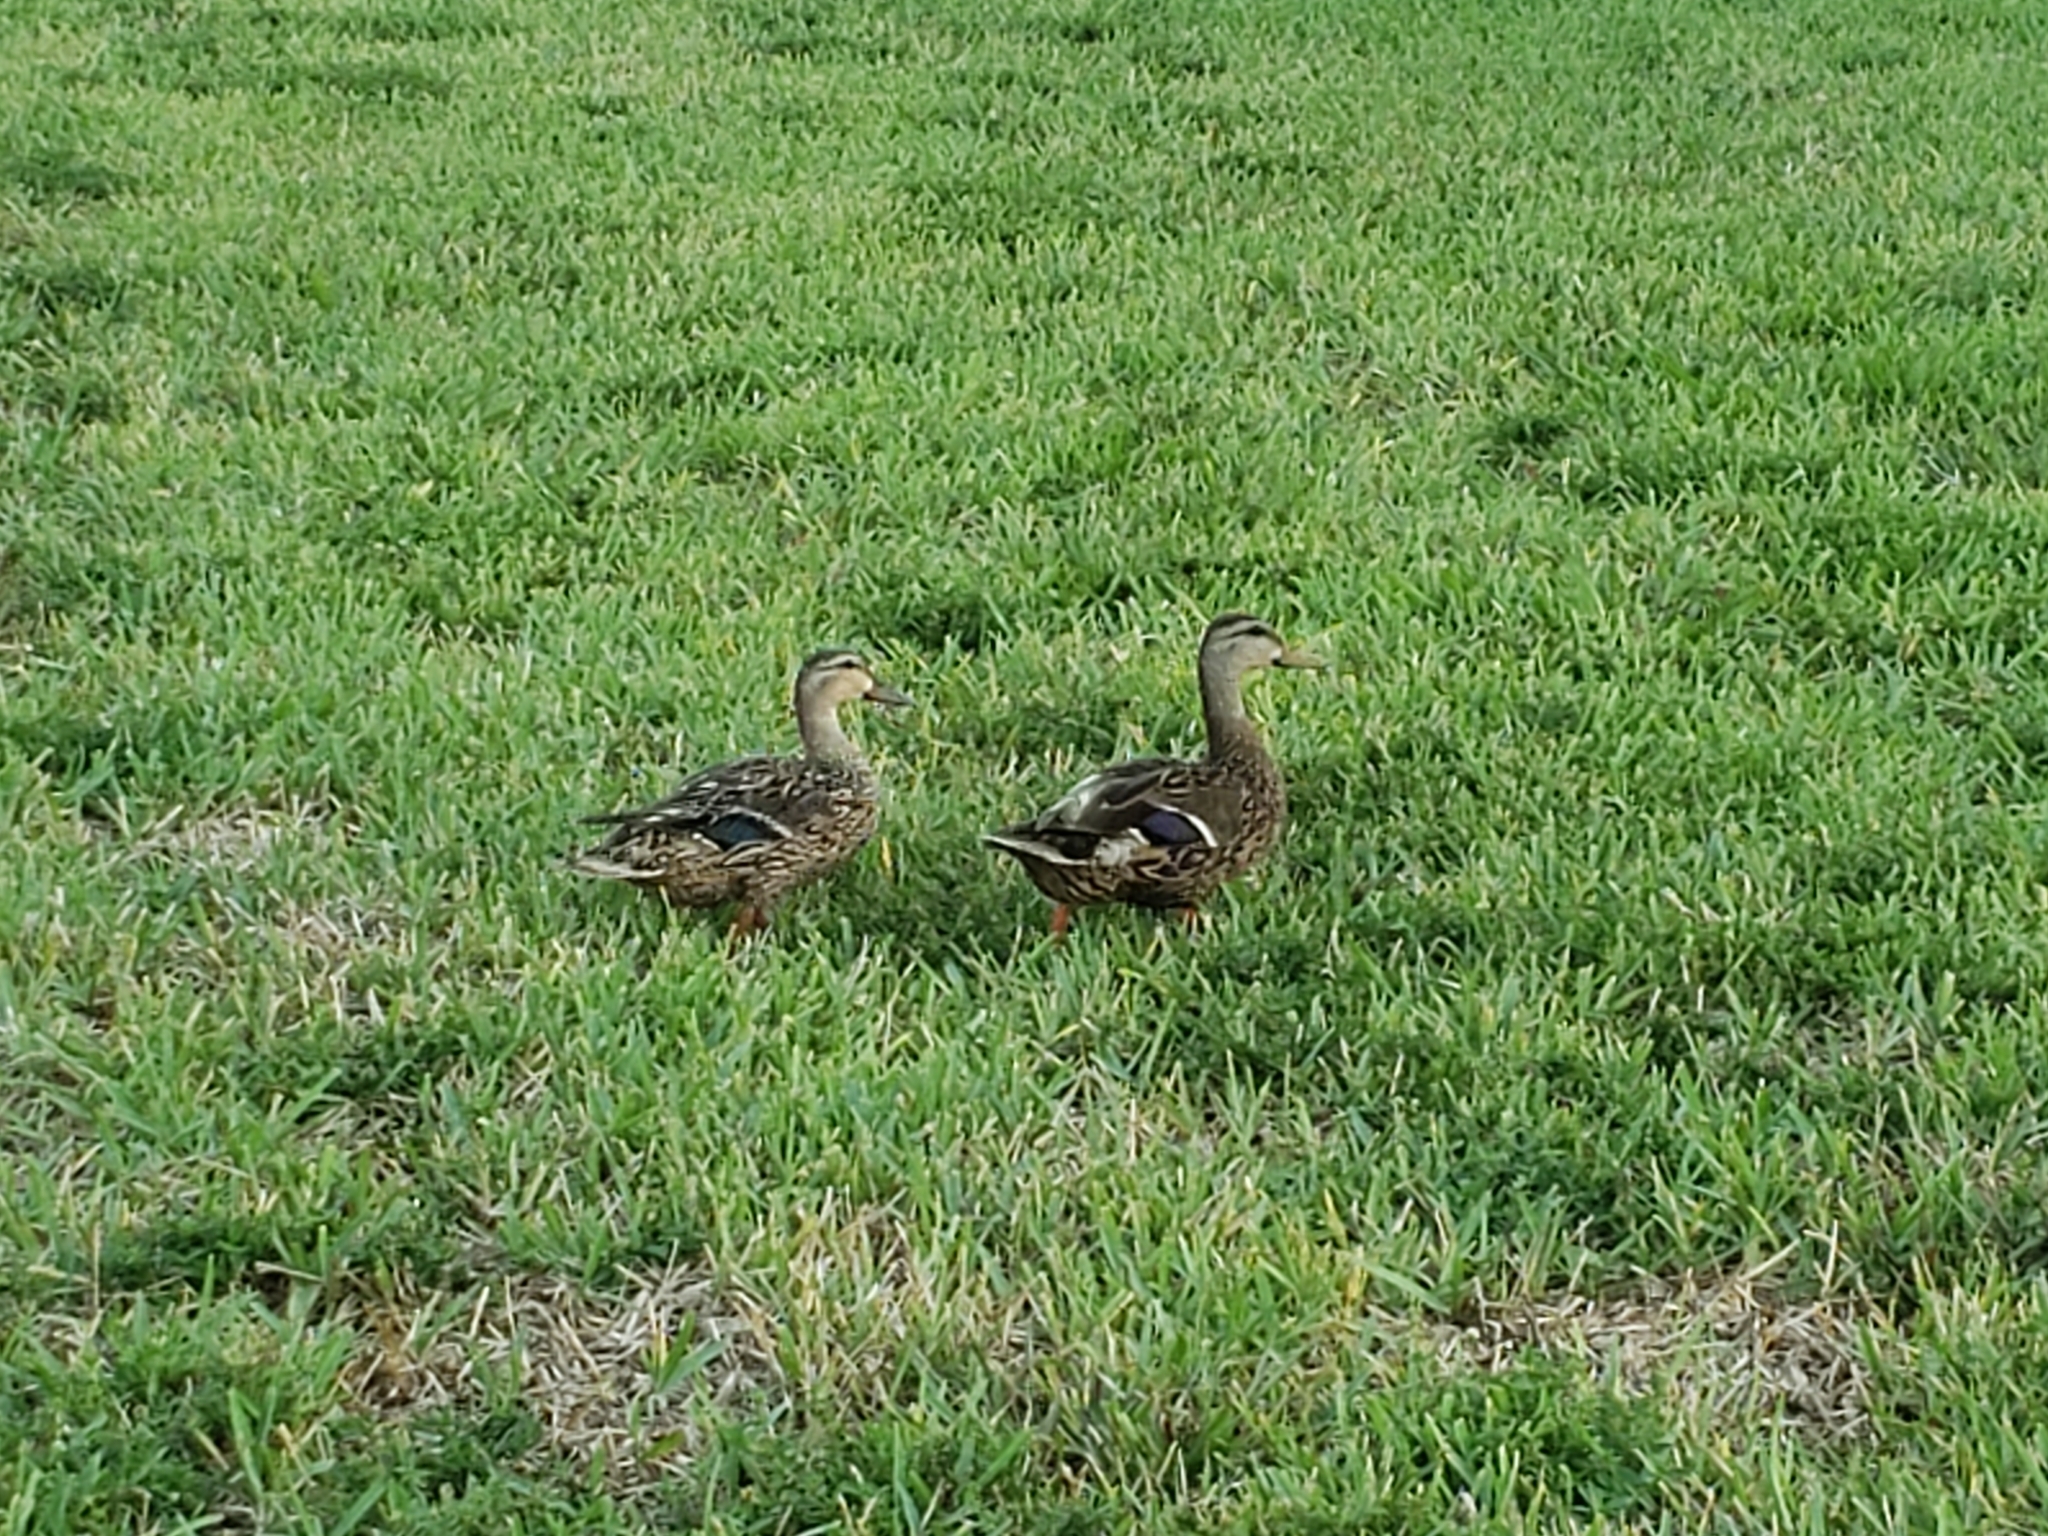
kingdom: Animalia
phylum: Chordata
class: Aves
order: Anseriformes
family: Anatidae
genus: Anas
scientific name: Anas platyrhynchos
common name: Mallard
